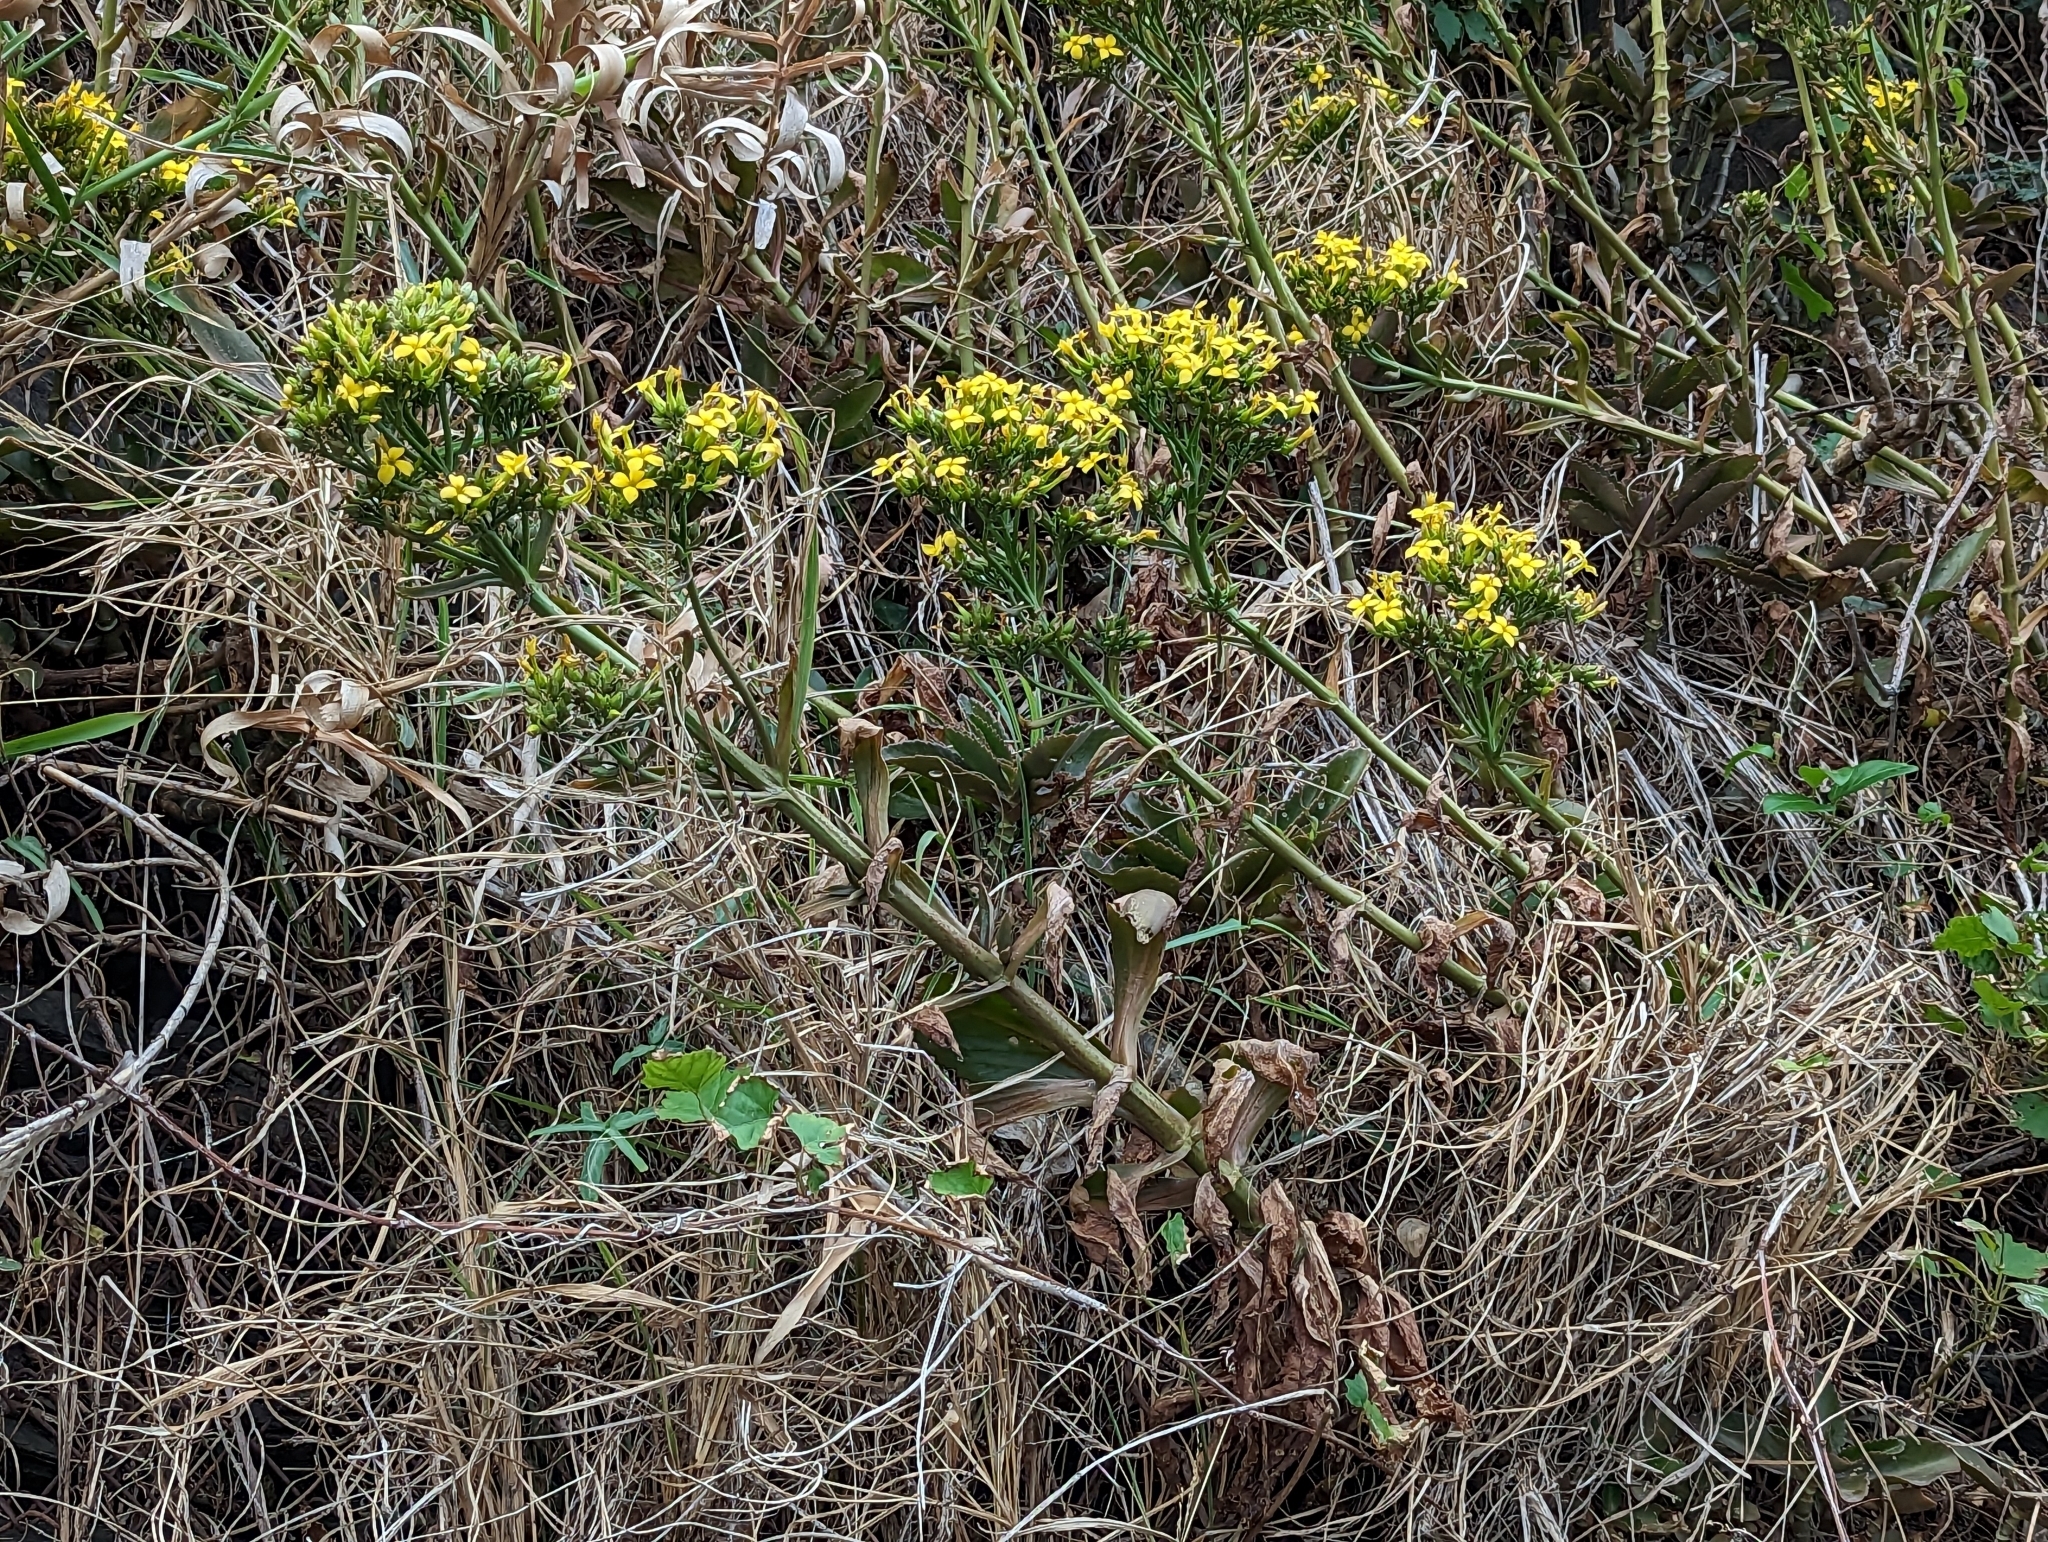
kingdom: Plantae
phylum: Tracheophyta
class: Magnoliopsida
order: Saxifragales
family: Crassulaceae
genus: Kalanchoe
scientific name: Kalanchoe integra
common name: Neverdie
